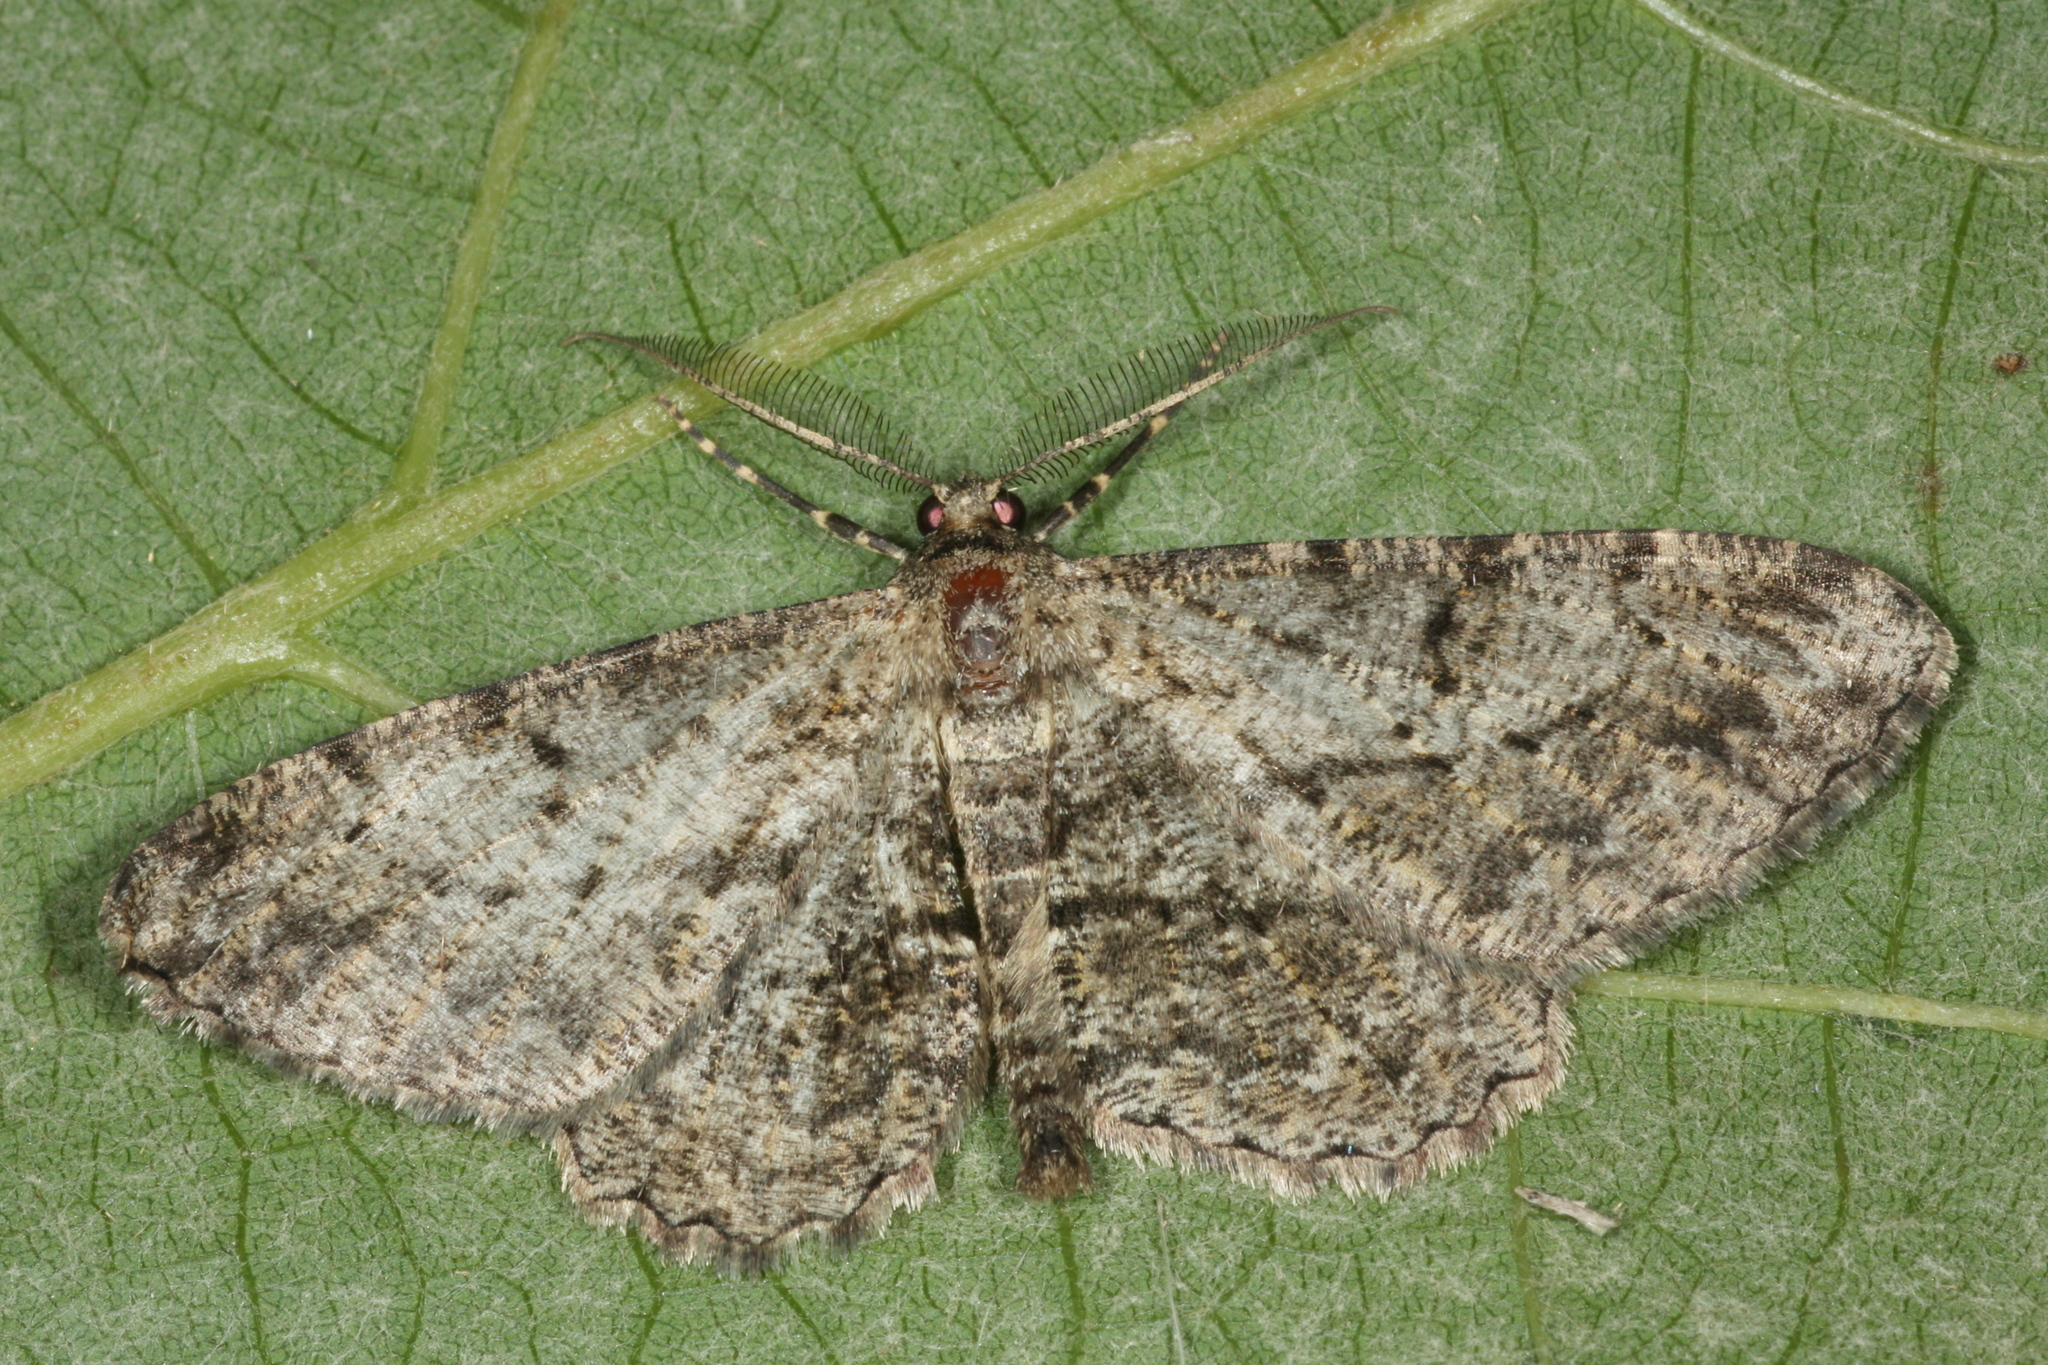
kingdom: Animalia
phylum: Arthropoda
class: Insecta
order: Lepidoptera
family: Geometridae
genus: Peribatodes
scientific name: Peribatodes rhomboidaria
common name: Willow beauty
